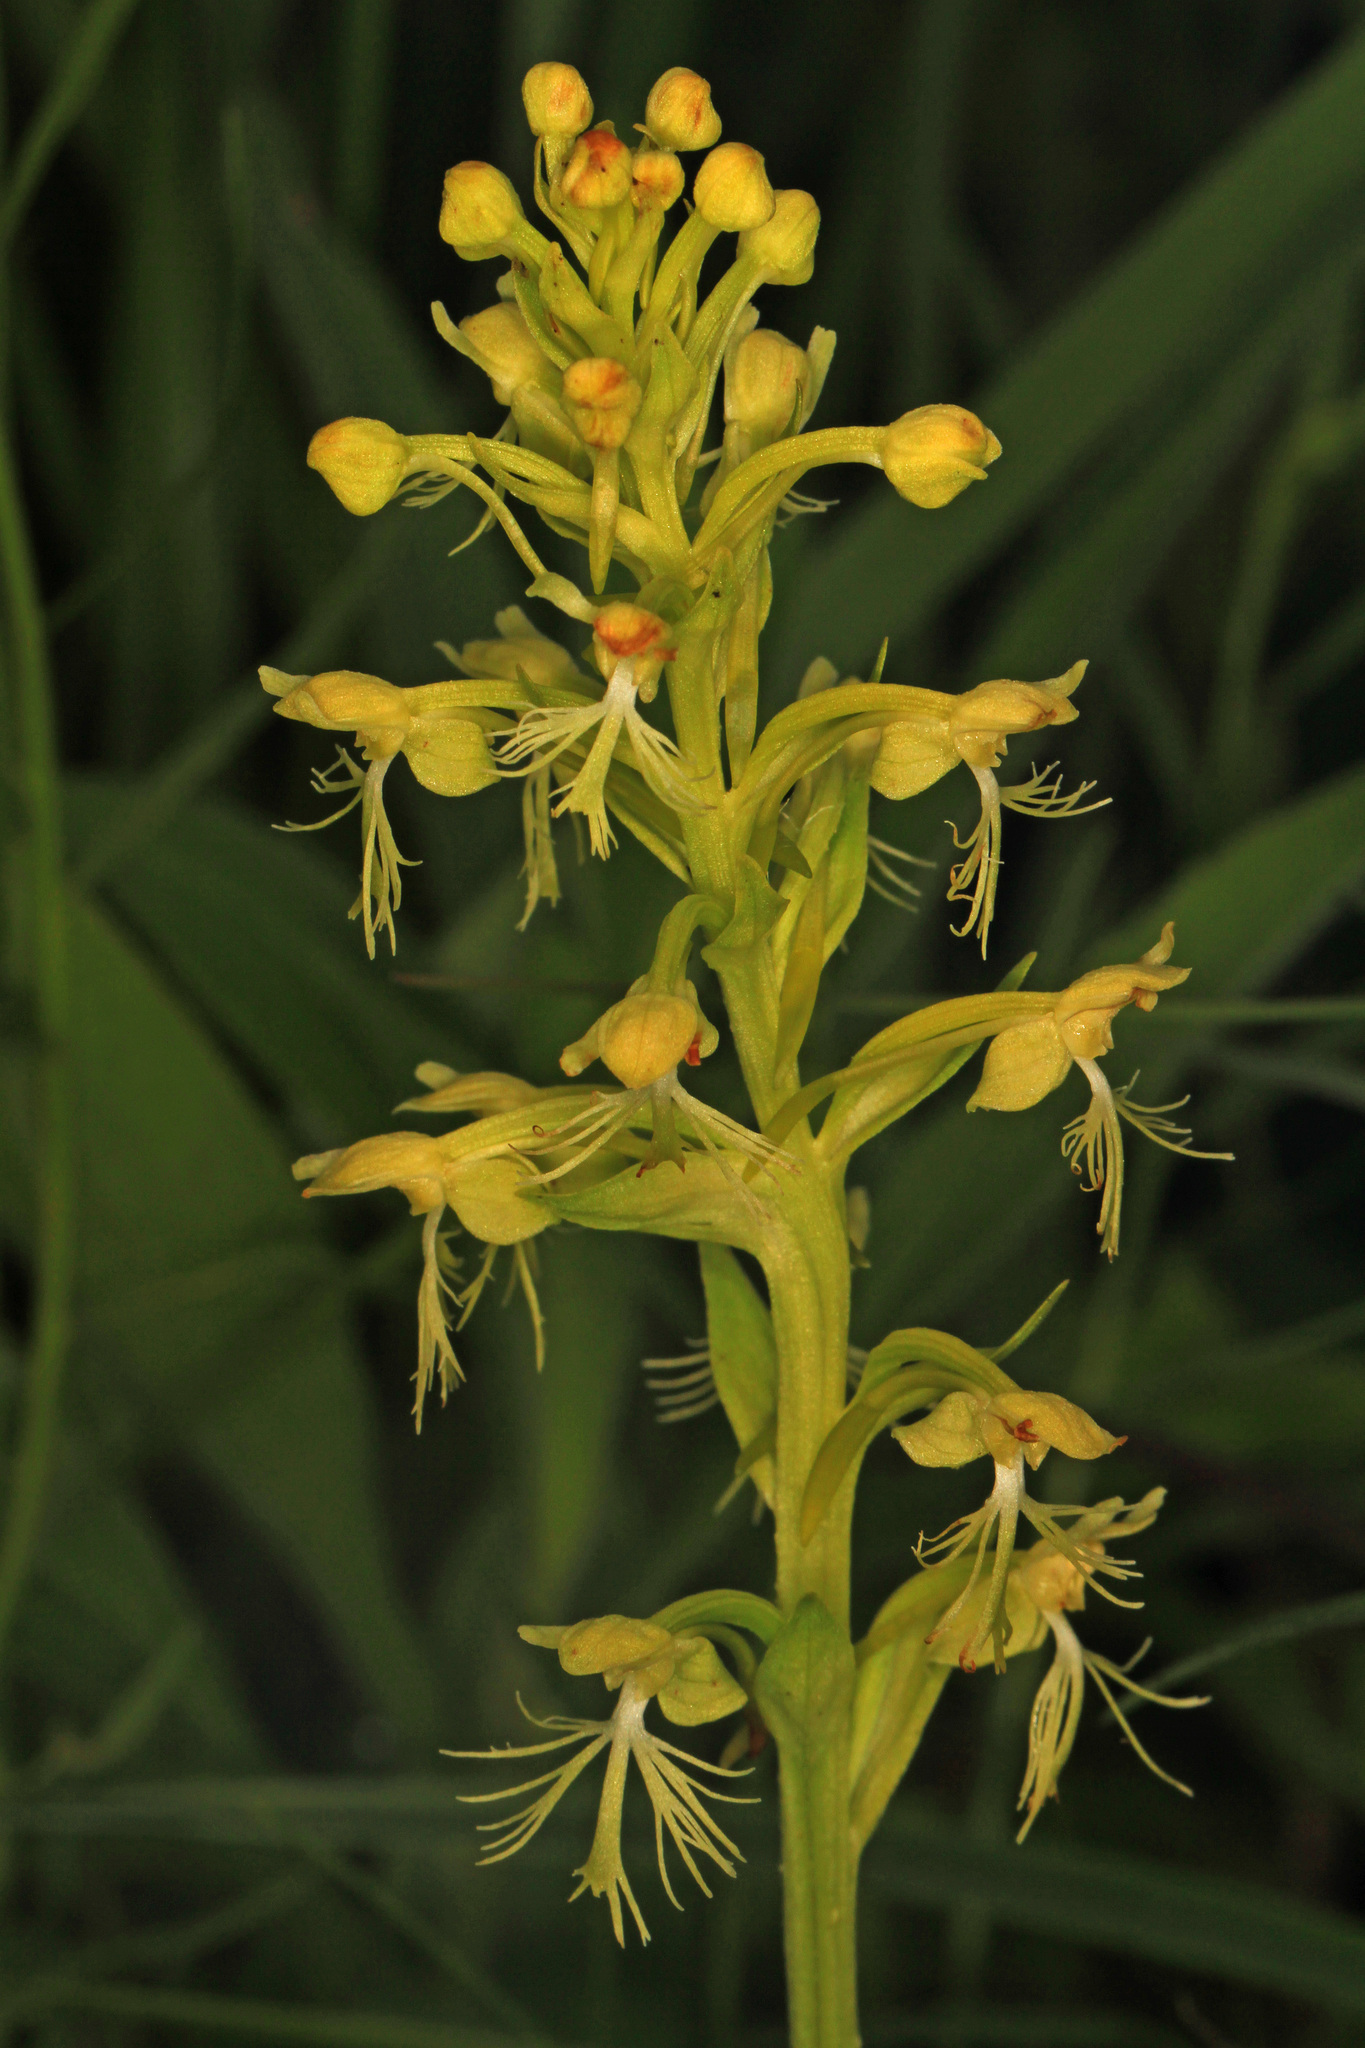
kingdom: Plantae
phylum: Tracheophyta
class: Liliopsida
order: Asparagales
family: Orchidaceae
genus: Platanthera
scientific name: Platanthera lacera
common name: Green fringed orchid
